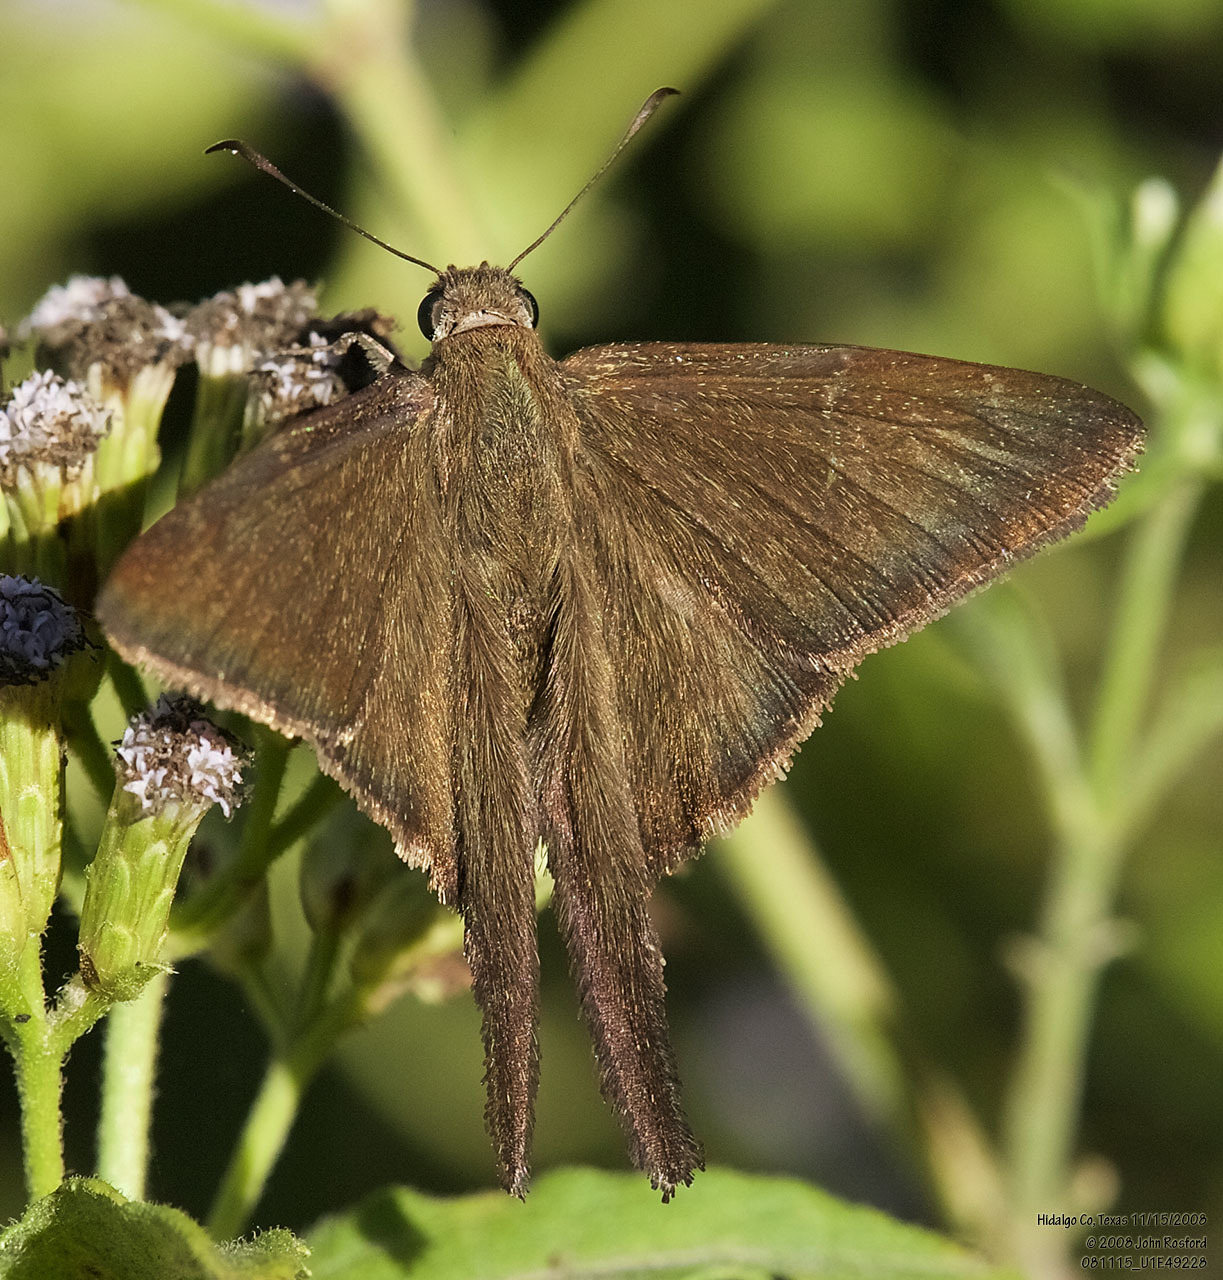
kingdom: Animalia
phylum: Arthropoda
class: Insecta
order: Lepidoptera
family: Hesperiidae
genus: Urbanus
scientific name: Urbanus procne
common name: Brown longtail
